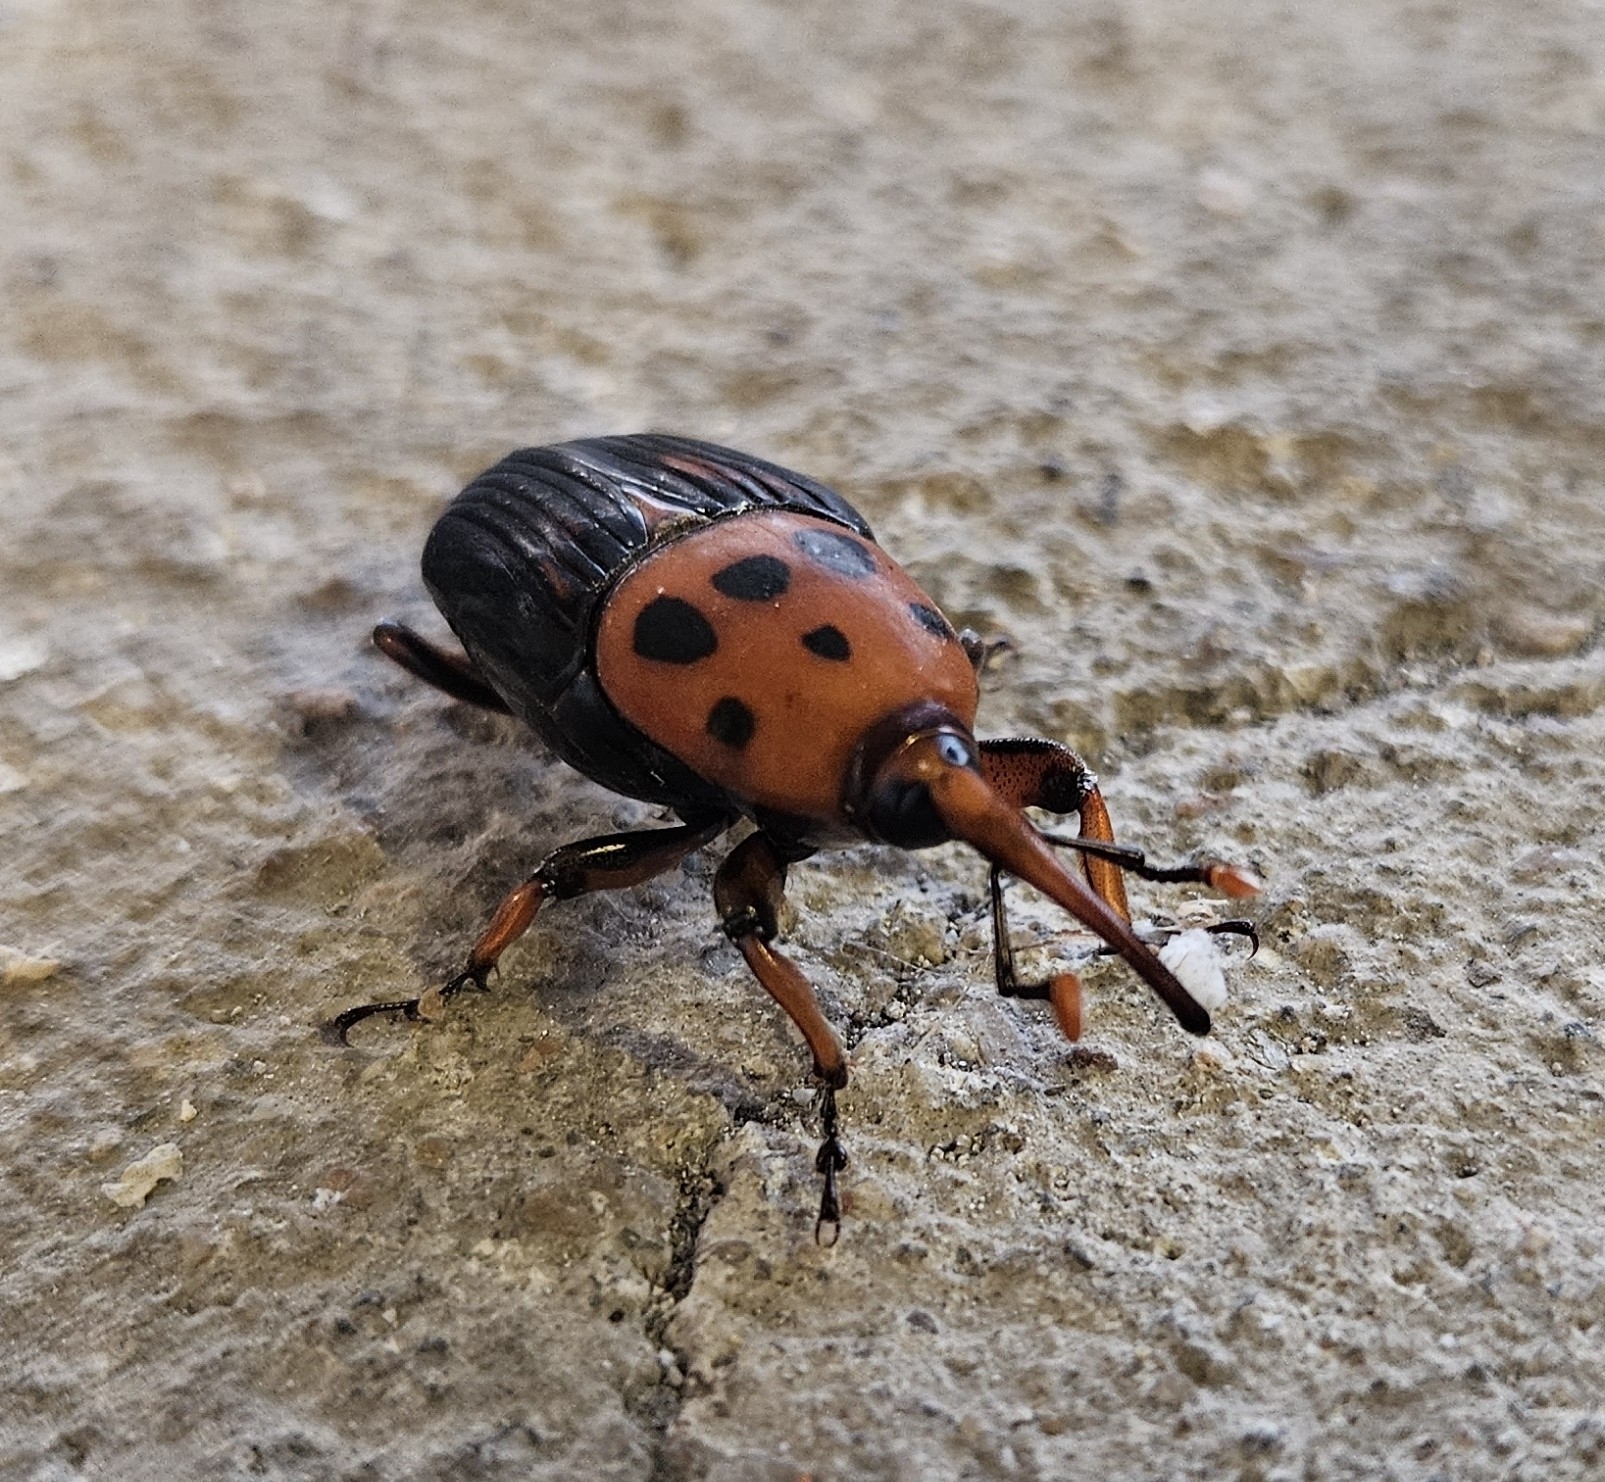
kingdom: Animalia
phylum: Arthropoda
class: Insecta
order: Coleoptera
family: Dryophthoridae
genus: Rhynchophorus
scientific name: Rhynchophorus ferrugineus
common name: Red palm weevil
